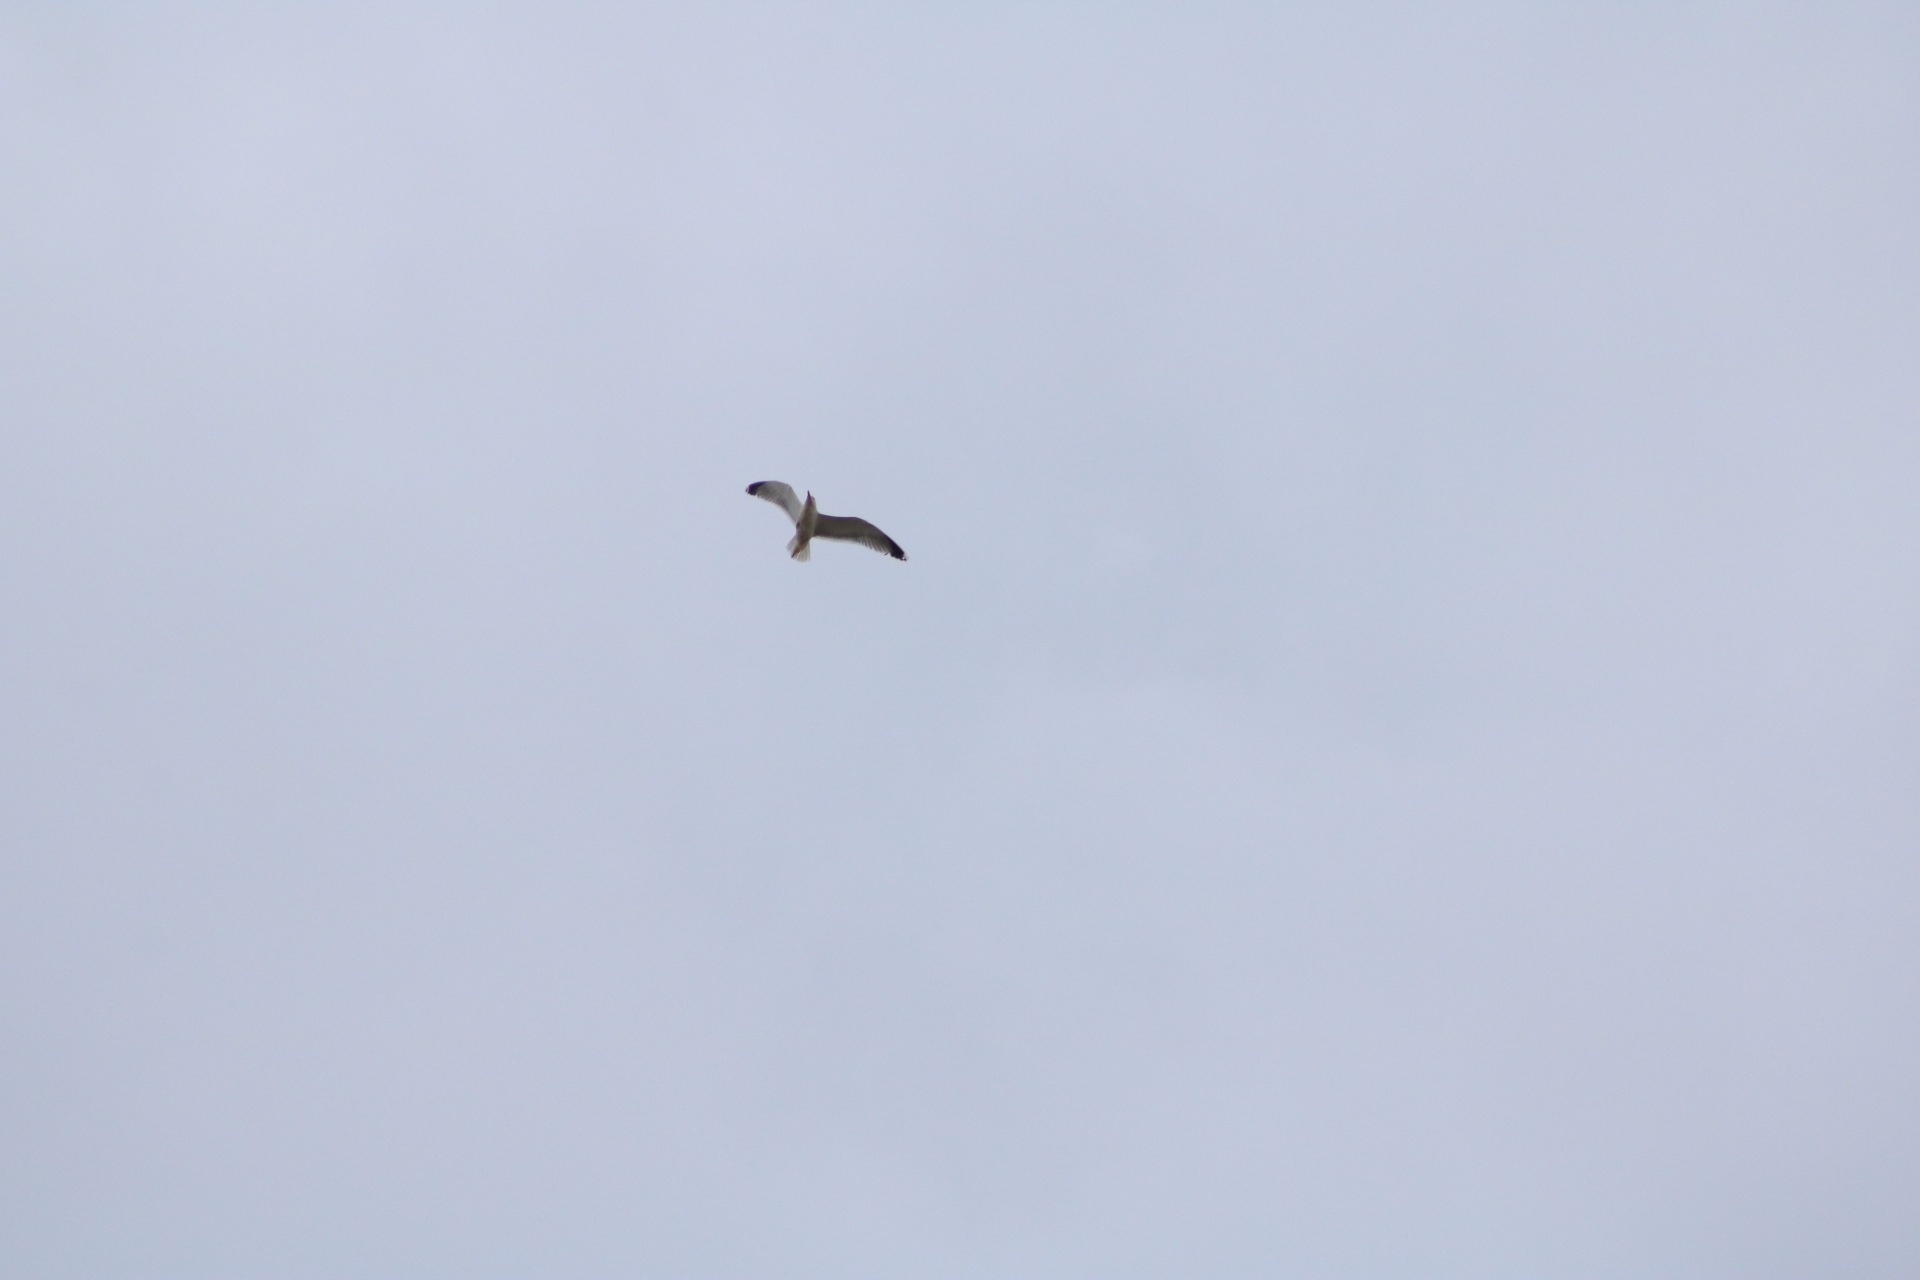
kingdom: Animalia
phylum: Chordata
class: Aves
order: Charadriiformes
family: Laridae
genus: Larus
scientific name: Larus michahellis
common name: Yellow-legged gull
